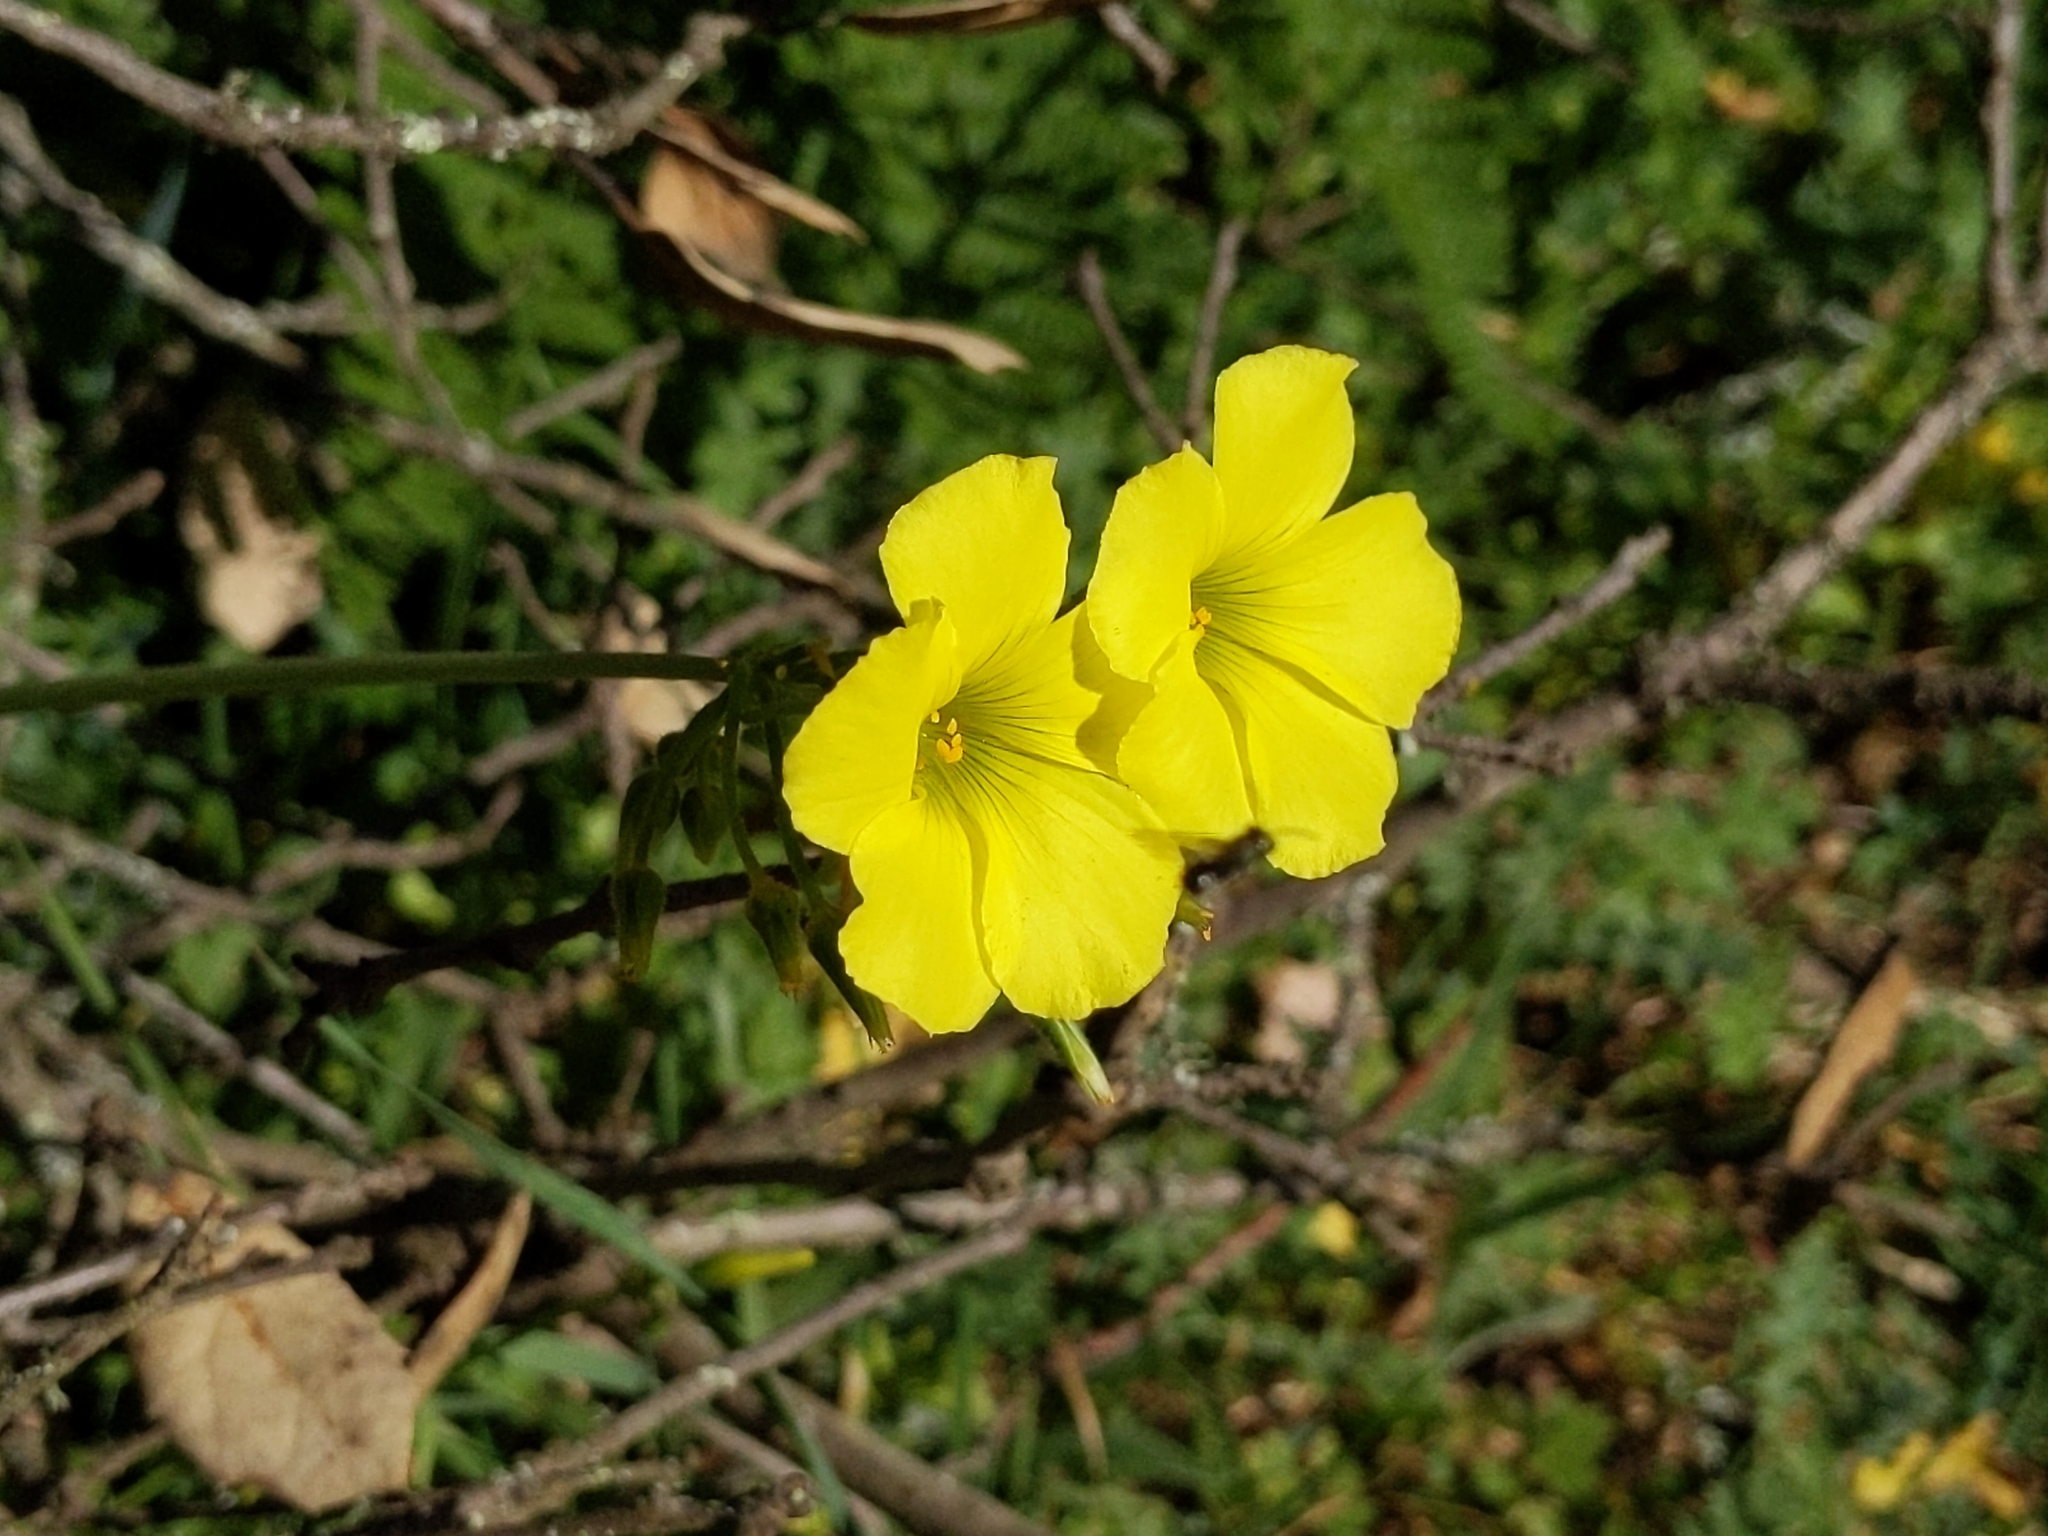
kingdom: Plantae
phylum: Tracheophyta
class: Magnoliopsida
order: Oxalidales
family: Oxalidaceae
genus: Oxalis
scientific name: Oxalis pes-caprae
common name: Bermuda-buttercup
